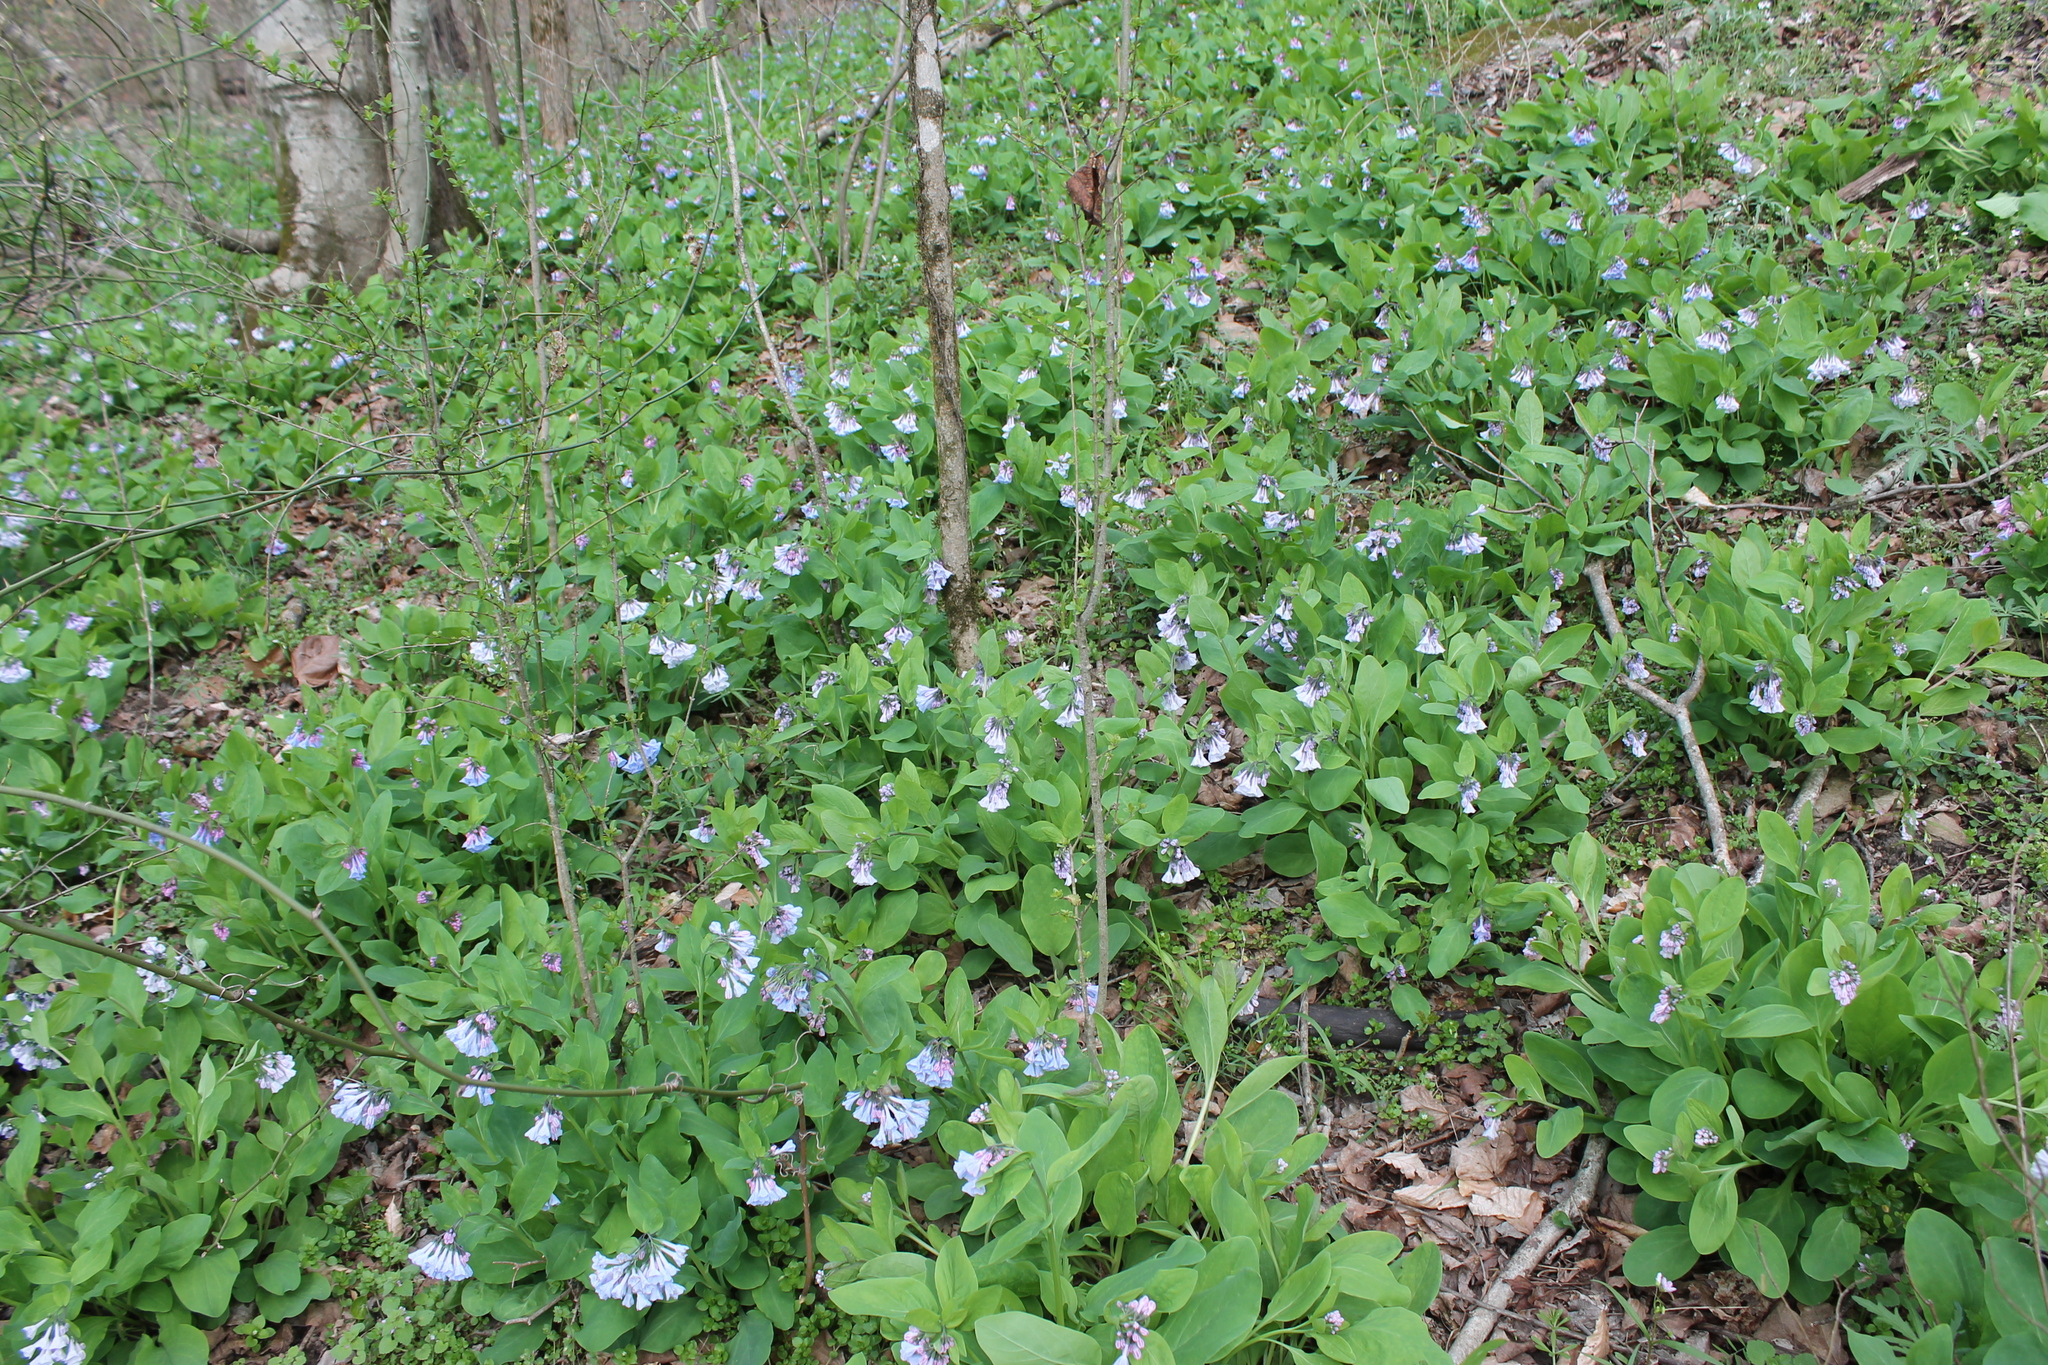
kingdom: Plantae
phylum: Tracheophyta
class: Magnoliopsida
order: Boraginales
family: Boraginaceae
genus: Mertensia
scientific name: Mertensia virginica
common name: Virginia bluebells
